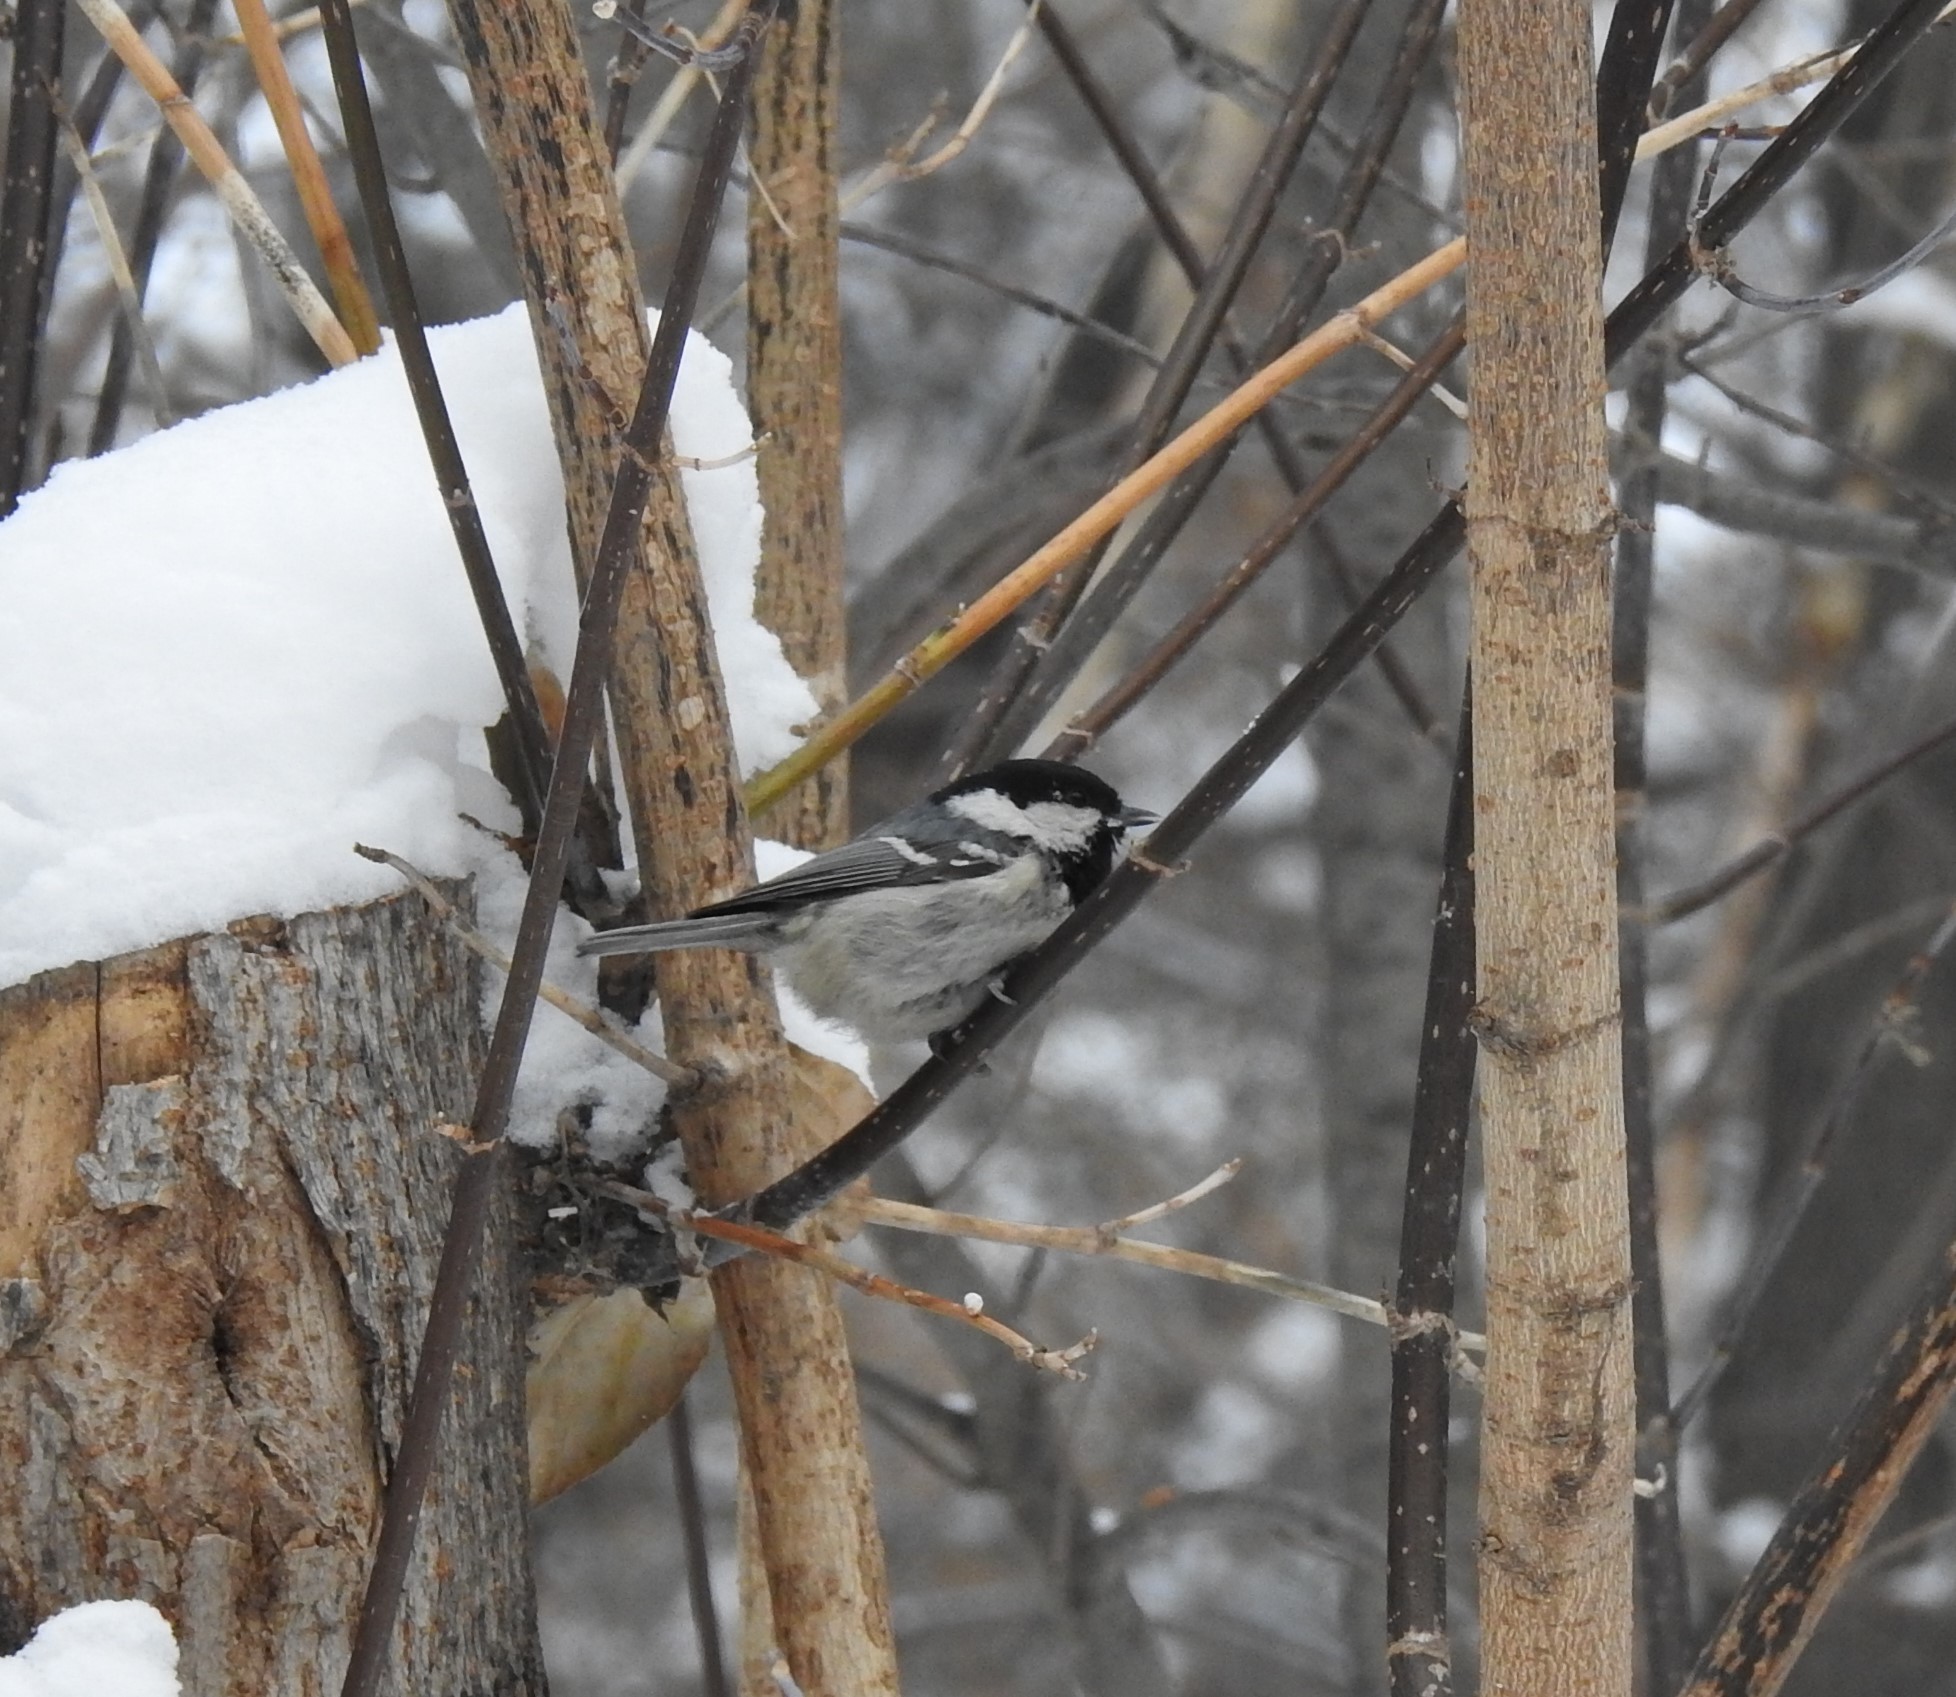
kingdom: Animalia
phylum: Chordata
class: Aves
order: Passeriformes
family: Paridae
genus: Periparus
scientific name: Periparus ater
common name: Coal tit
